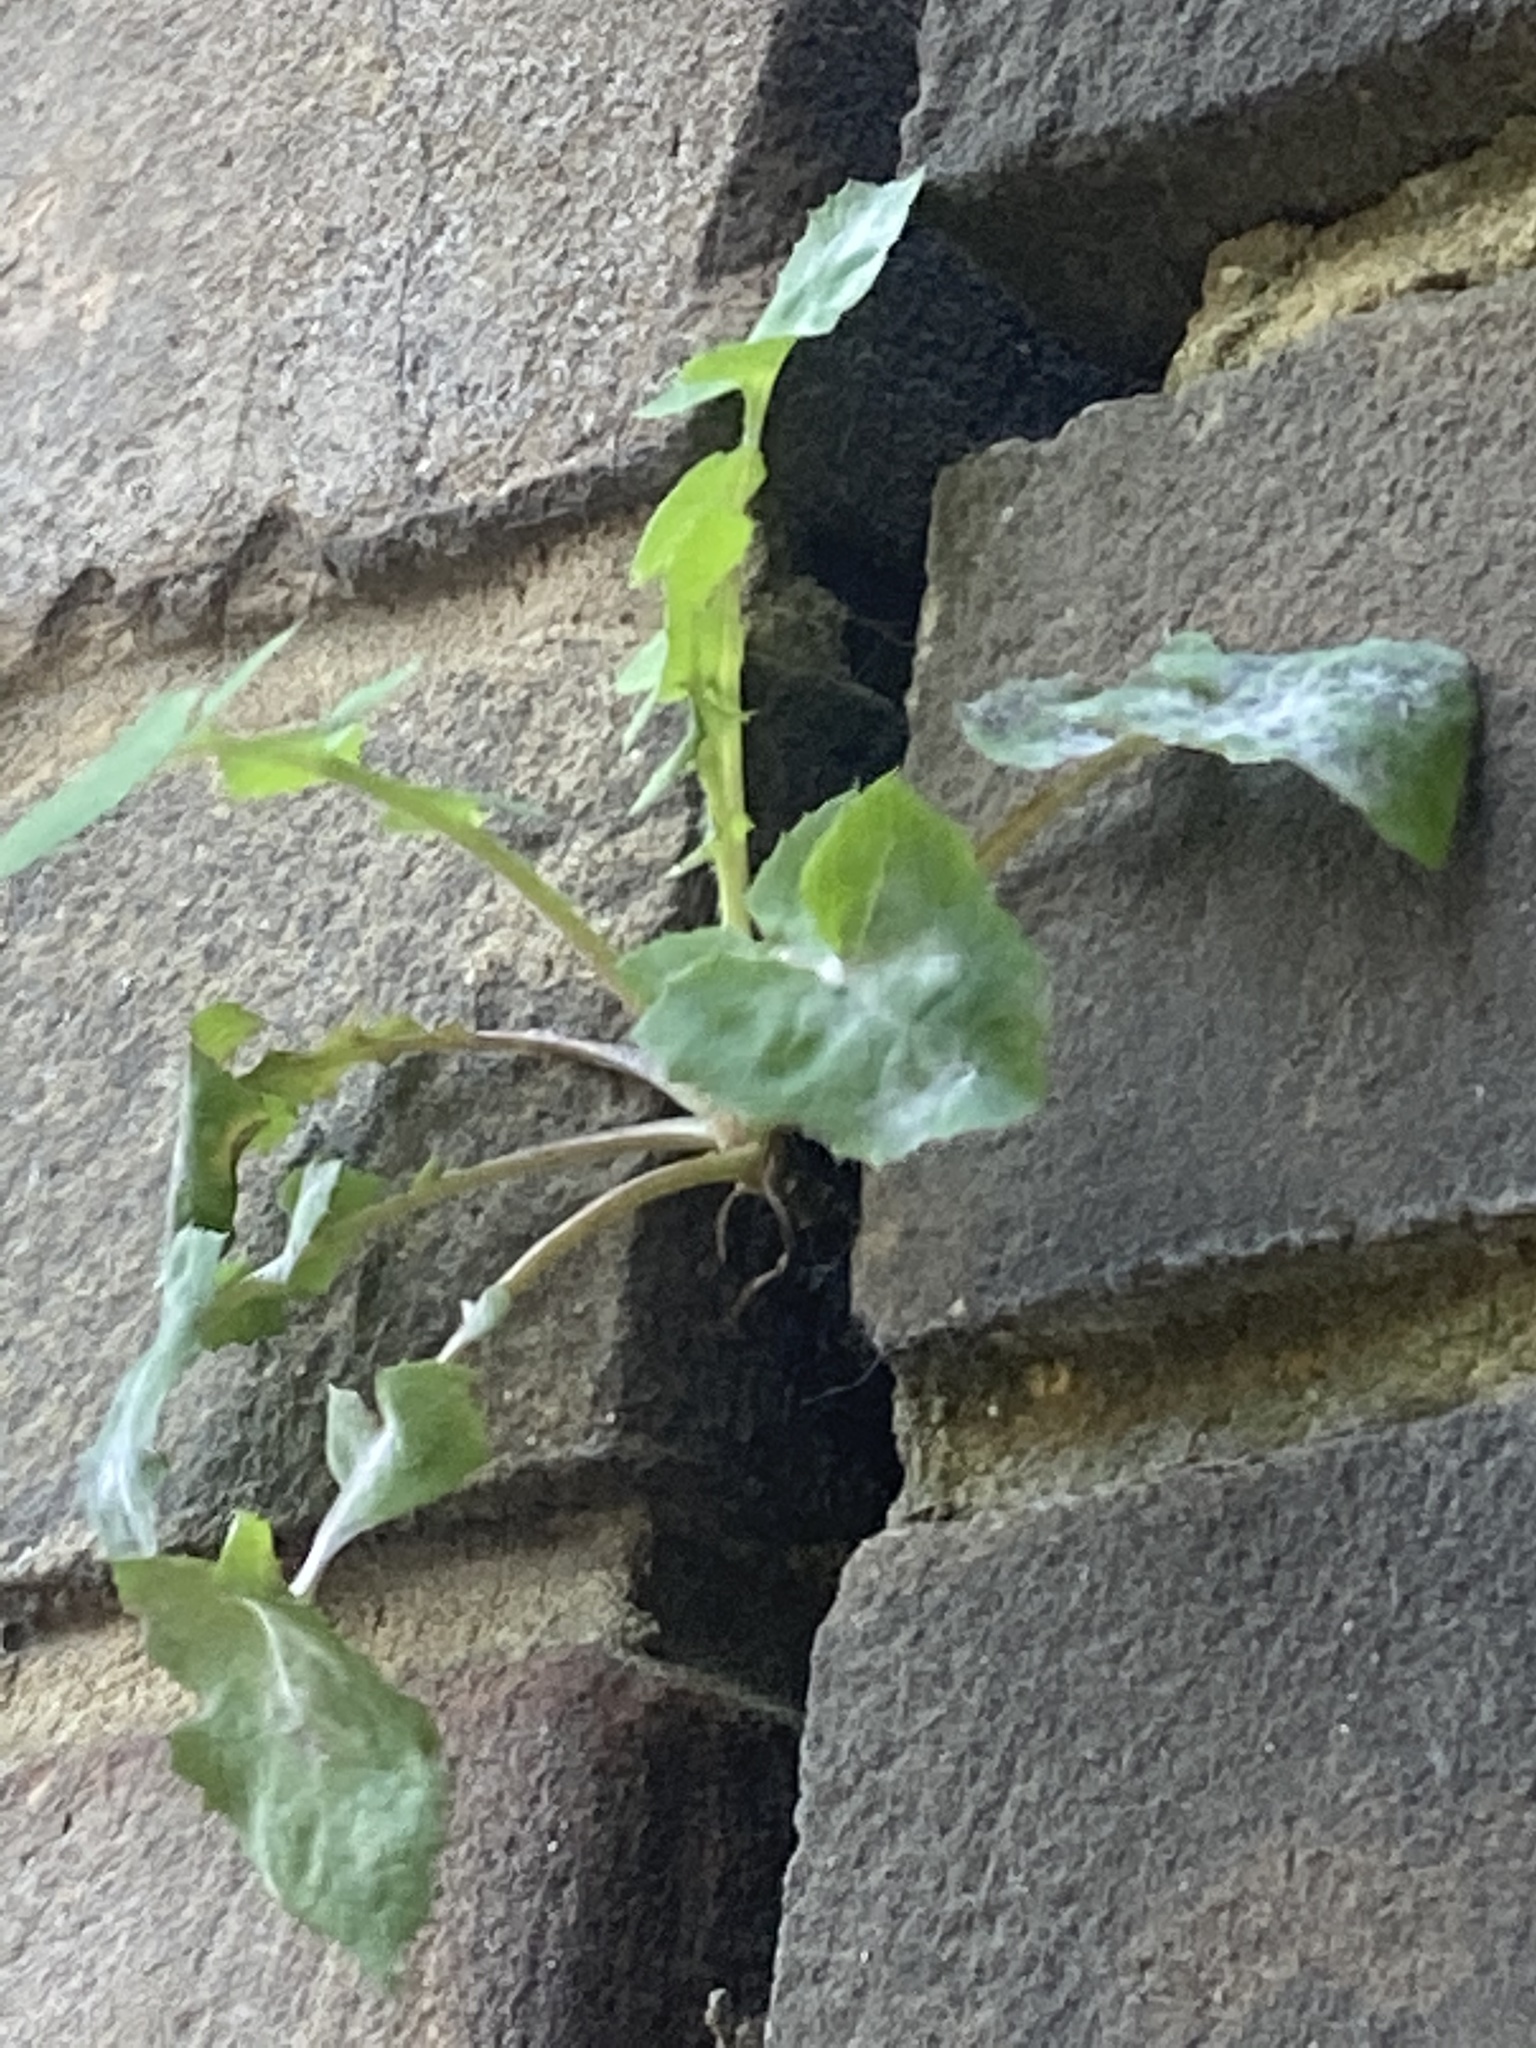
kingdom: Plantae
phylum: Tracheophyta
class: Magnoliopsida
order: Asterales
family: Asteraceae
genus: Sonchus
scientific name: Sonchus oleraceus
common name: Common sowthistle
